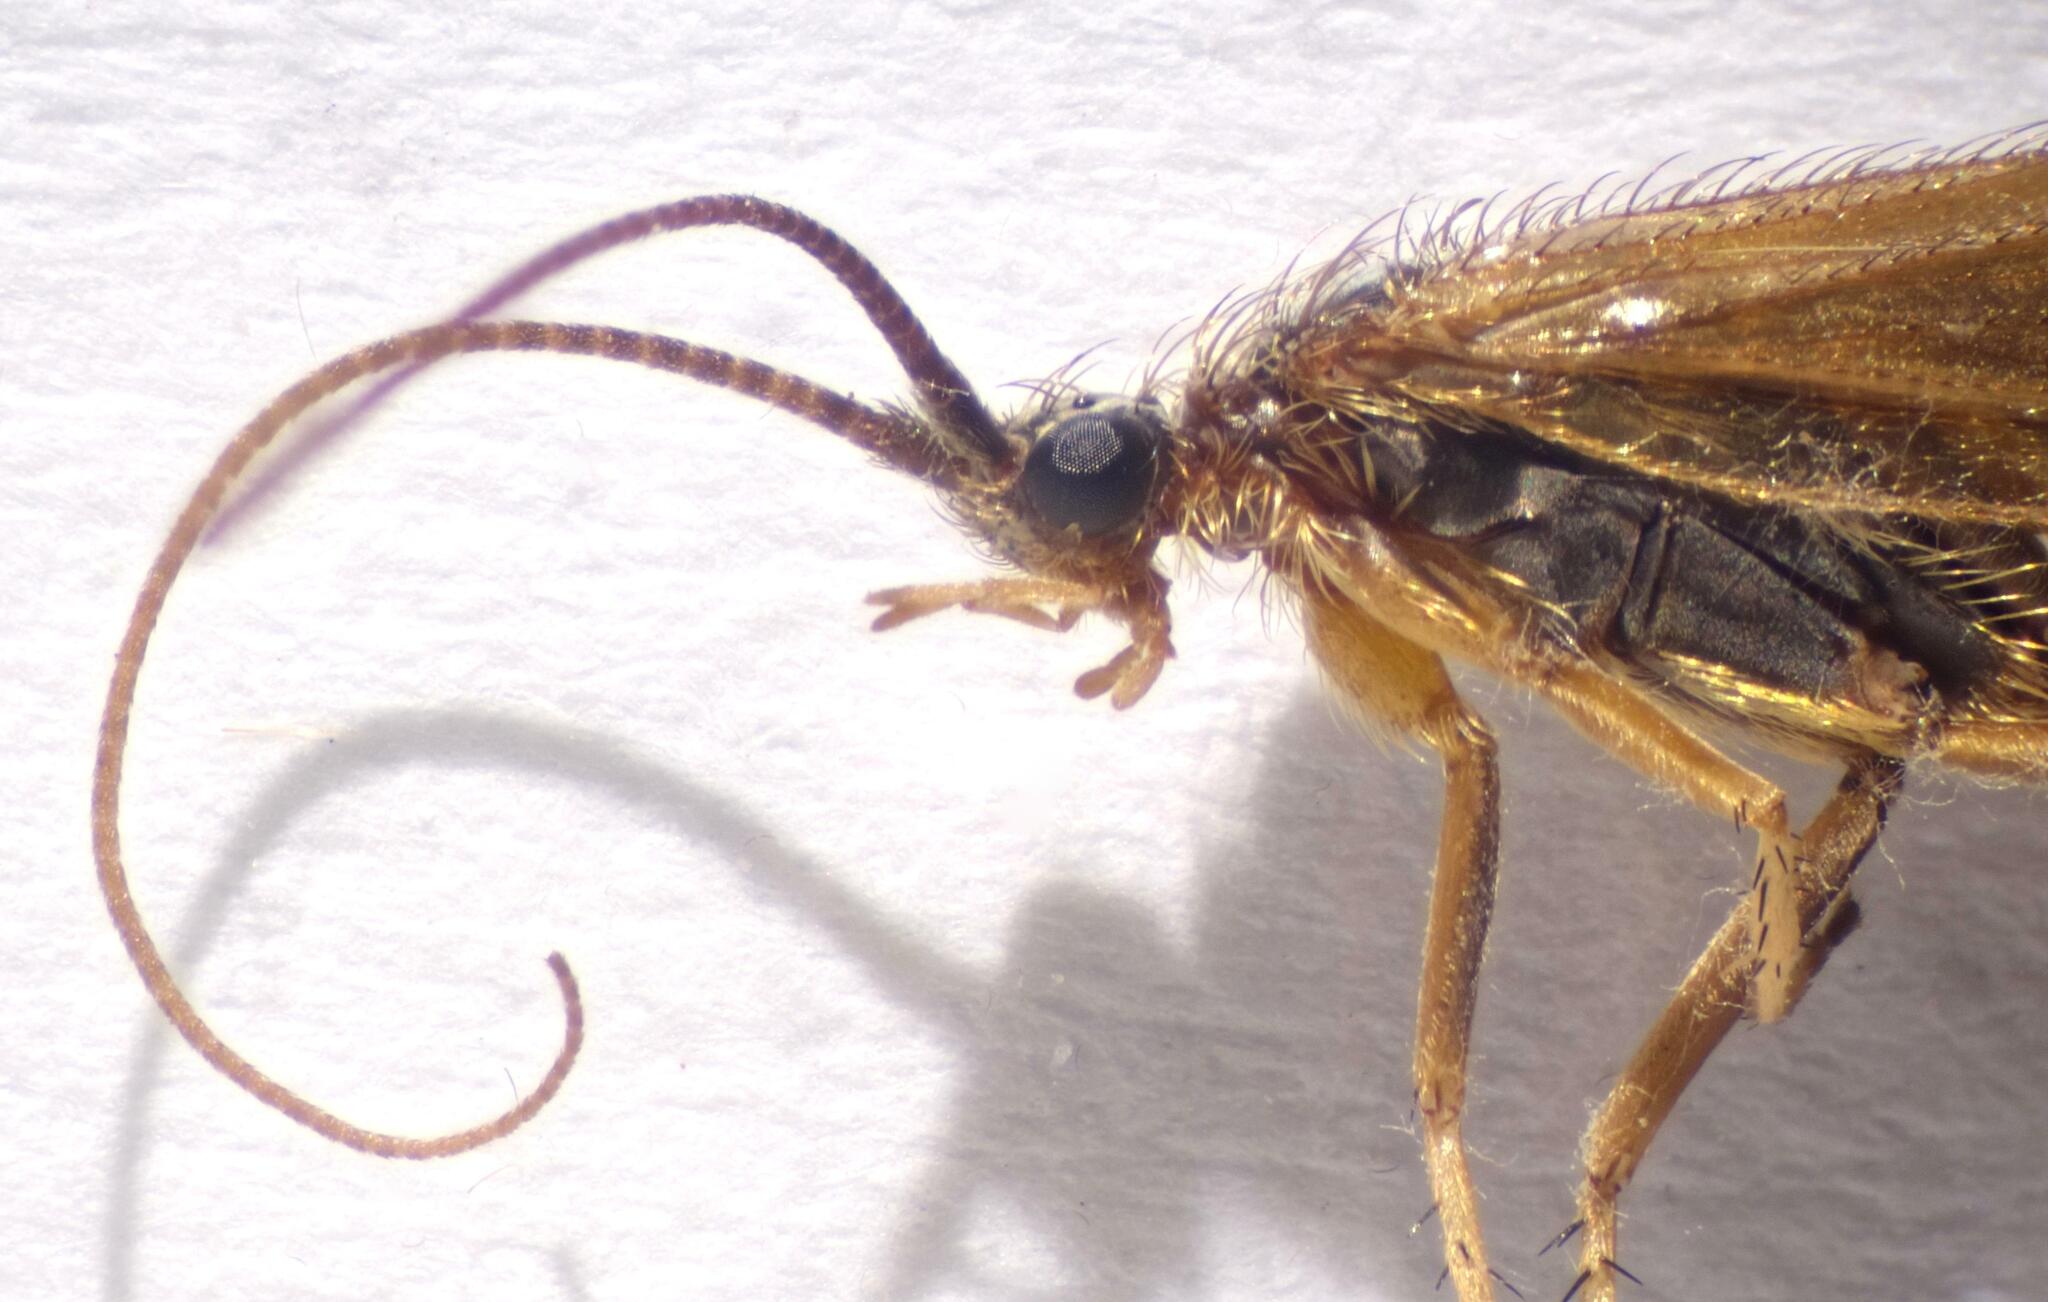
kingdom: Animalia
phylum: Arthropoda
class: Insecta
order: Trichoptera
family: Limnephilidae
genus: Limnephilus
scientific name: Limnephilus auricula
